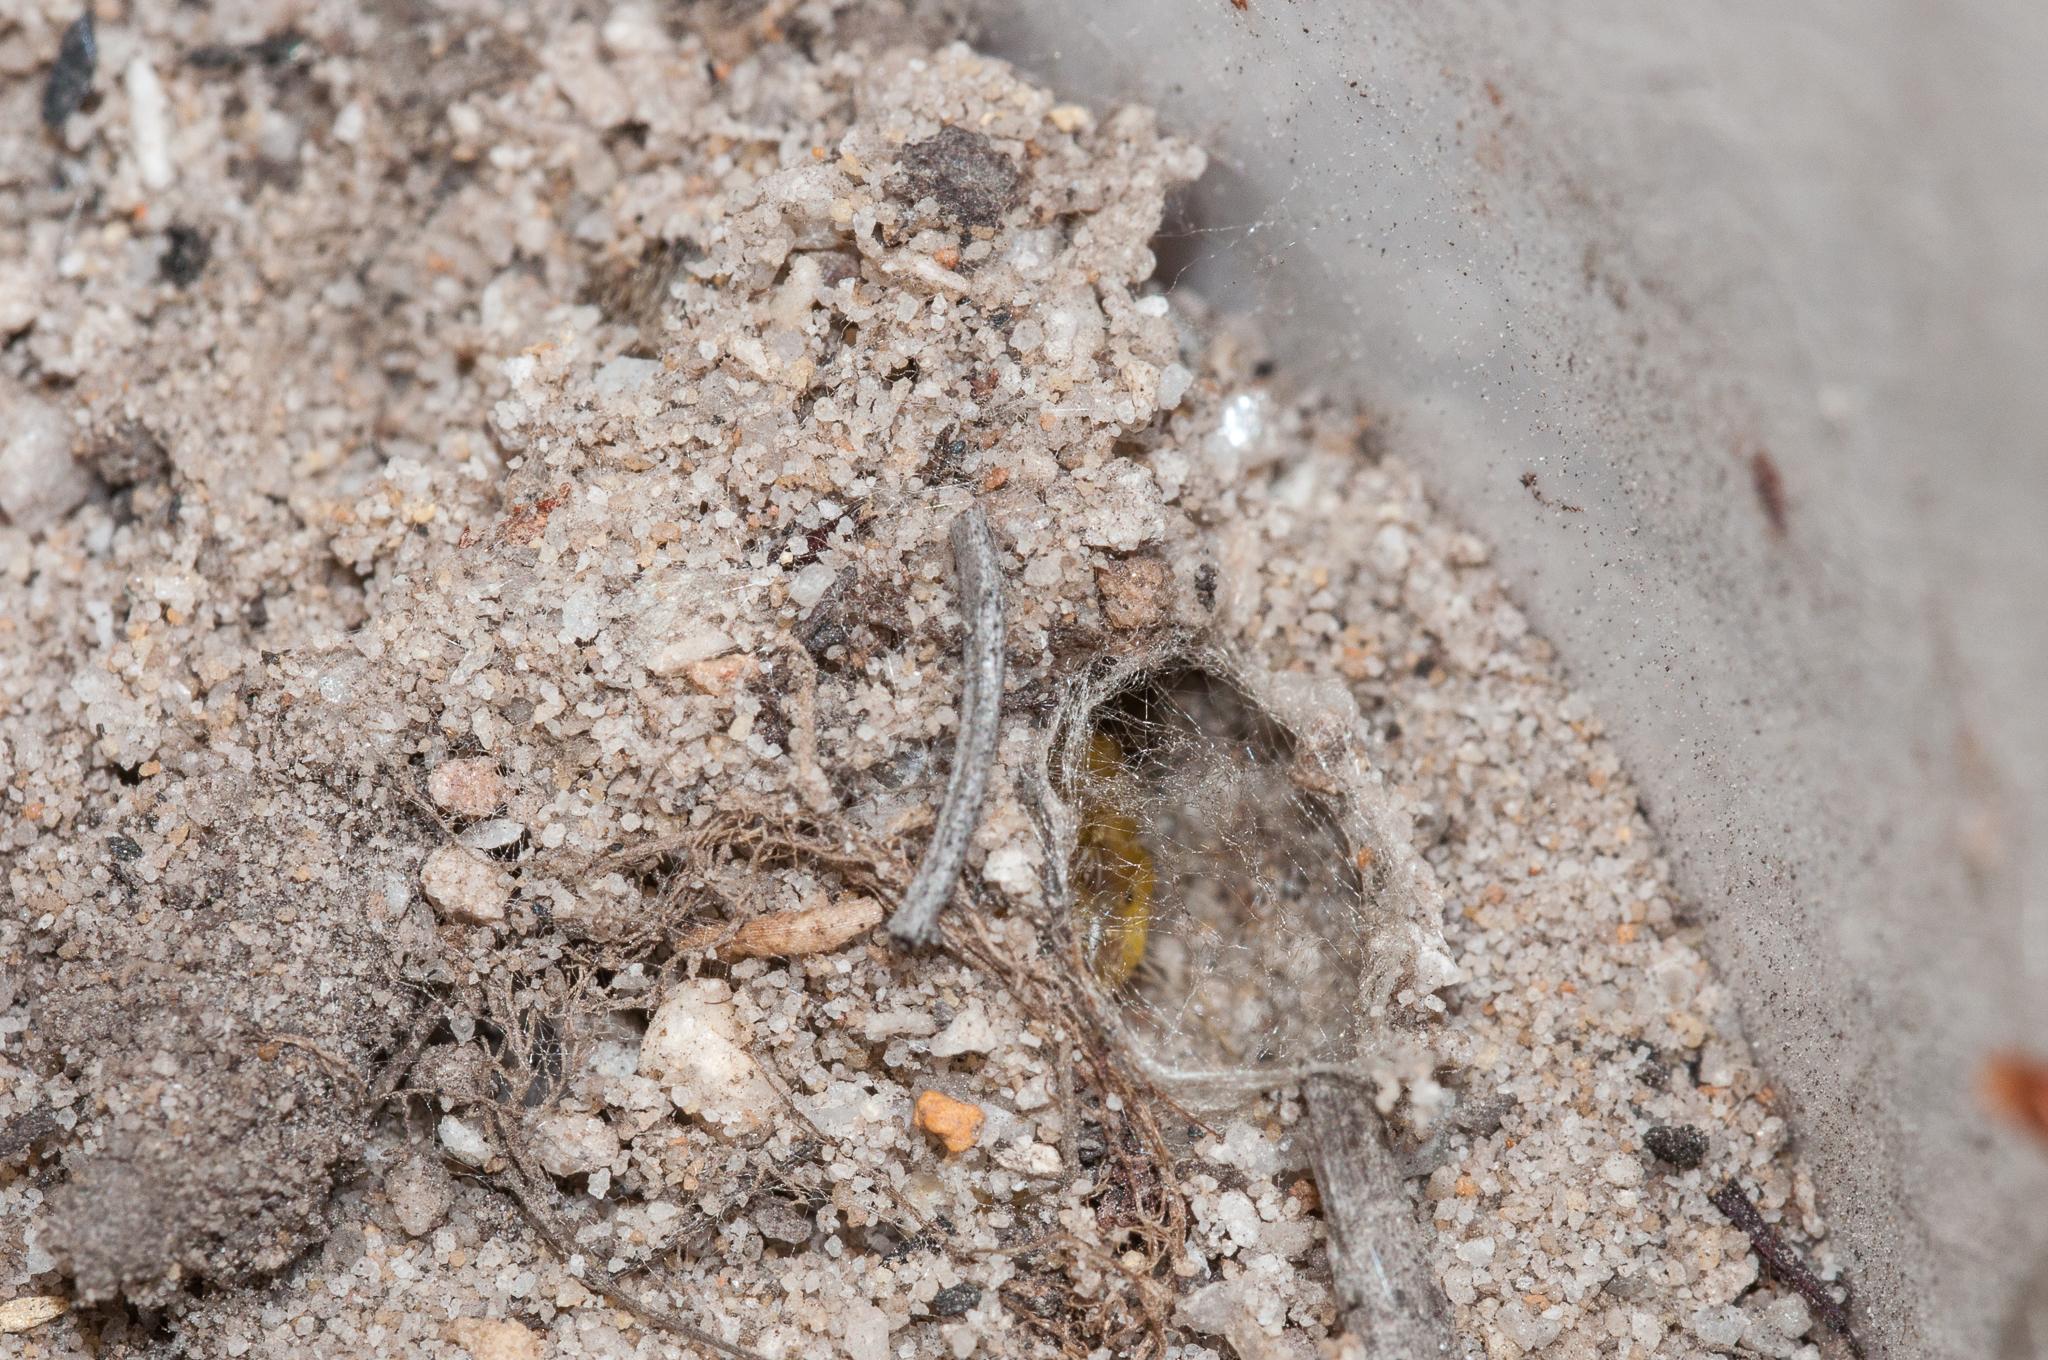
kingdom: Animalia
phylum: Arthropoda
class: Insecta
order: Lepidoptera
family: Somabrachyidae
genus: Psycharium
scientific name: Psycharium pellucens
